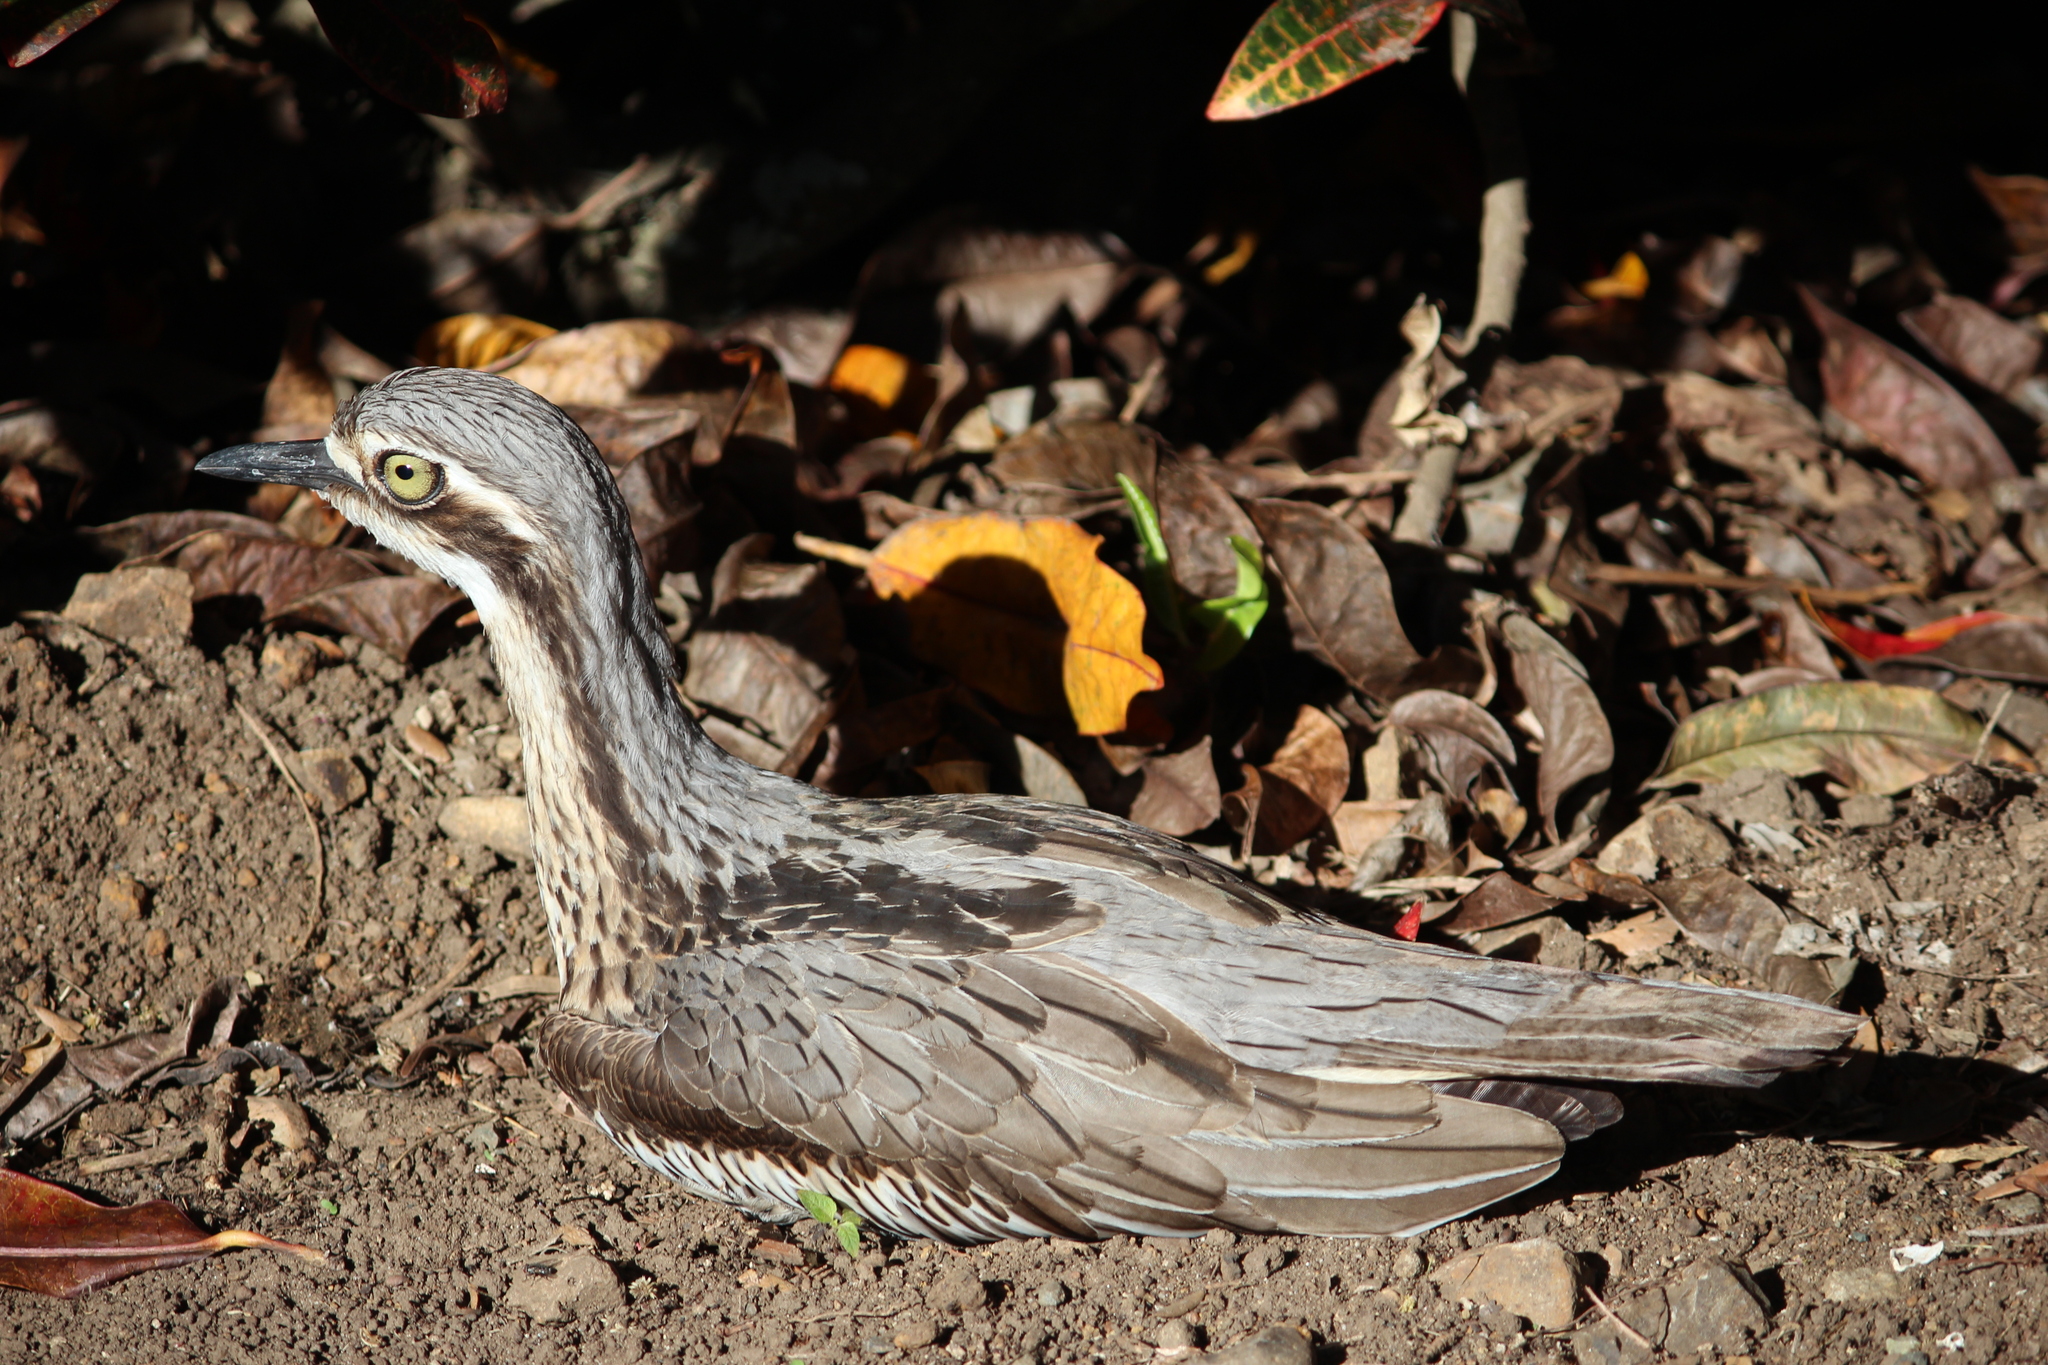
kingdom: Animalia
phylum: Chordata
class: Aves
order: Charadriiformes
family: Burhinidae
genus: Burhinus
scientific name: Burhinus grallarius
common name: Bush stone-curlew
